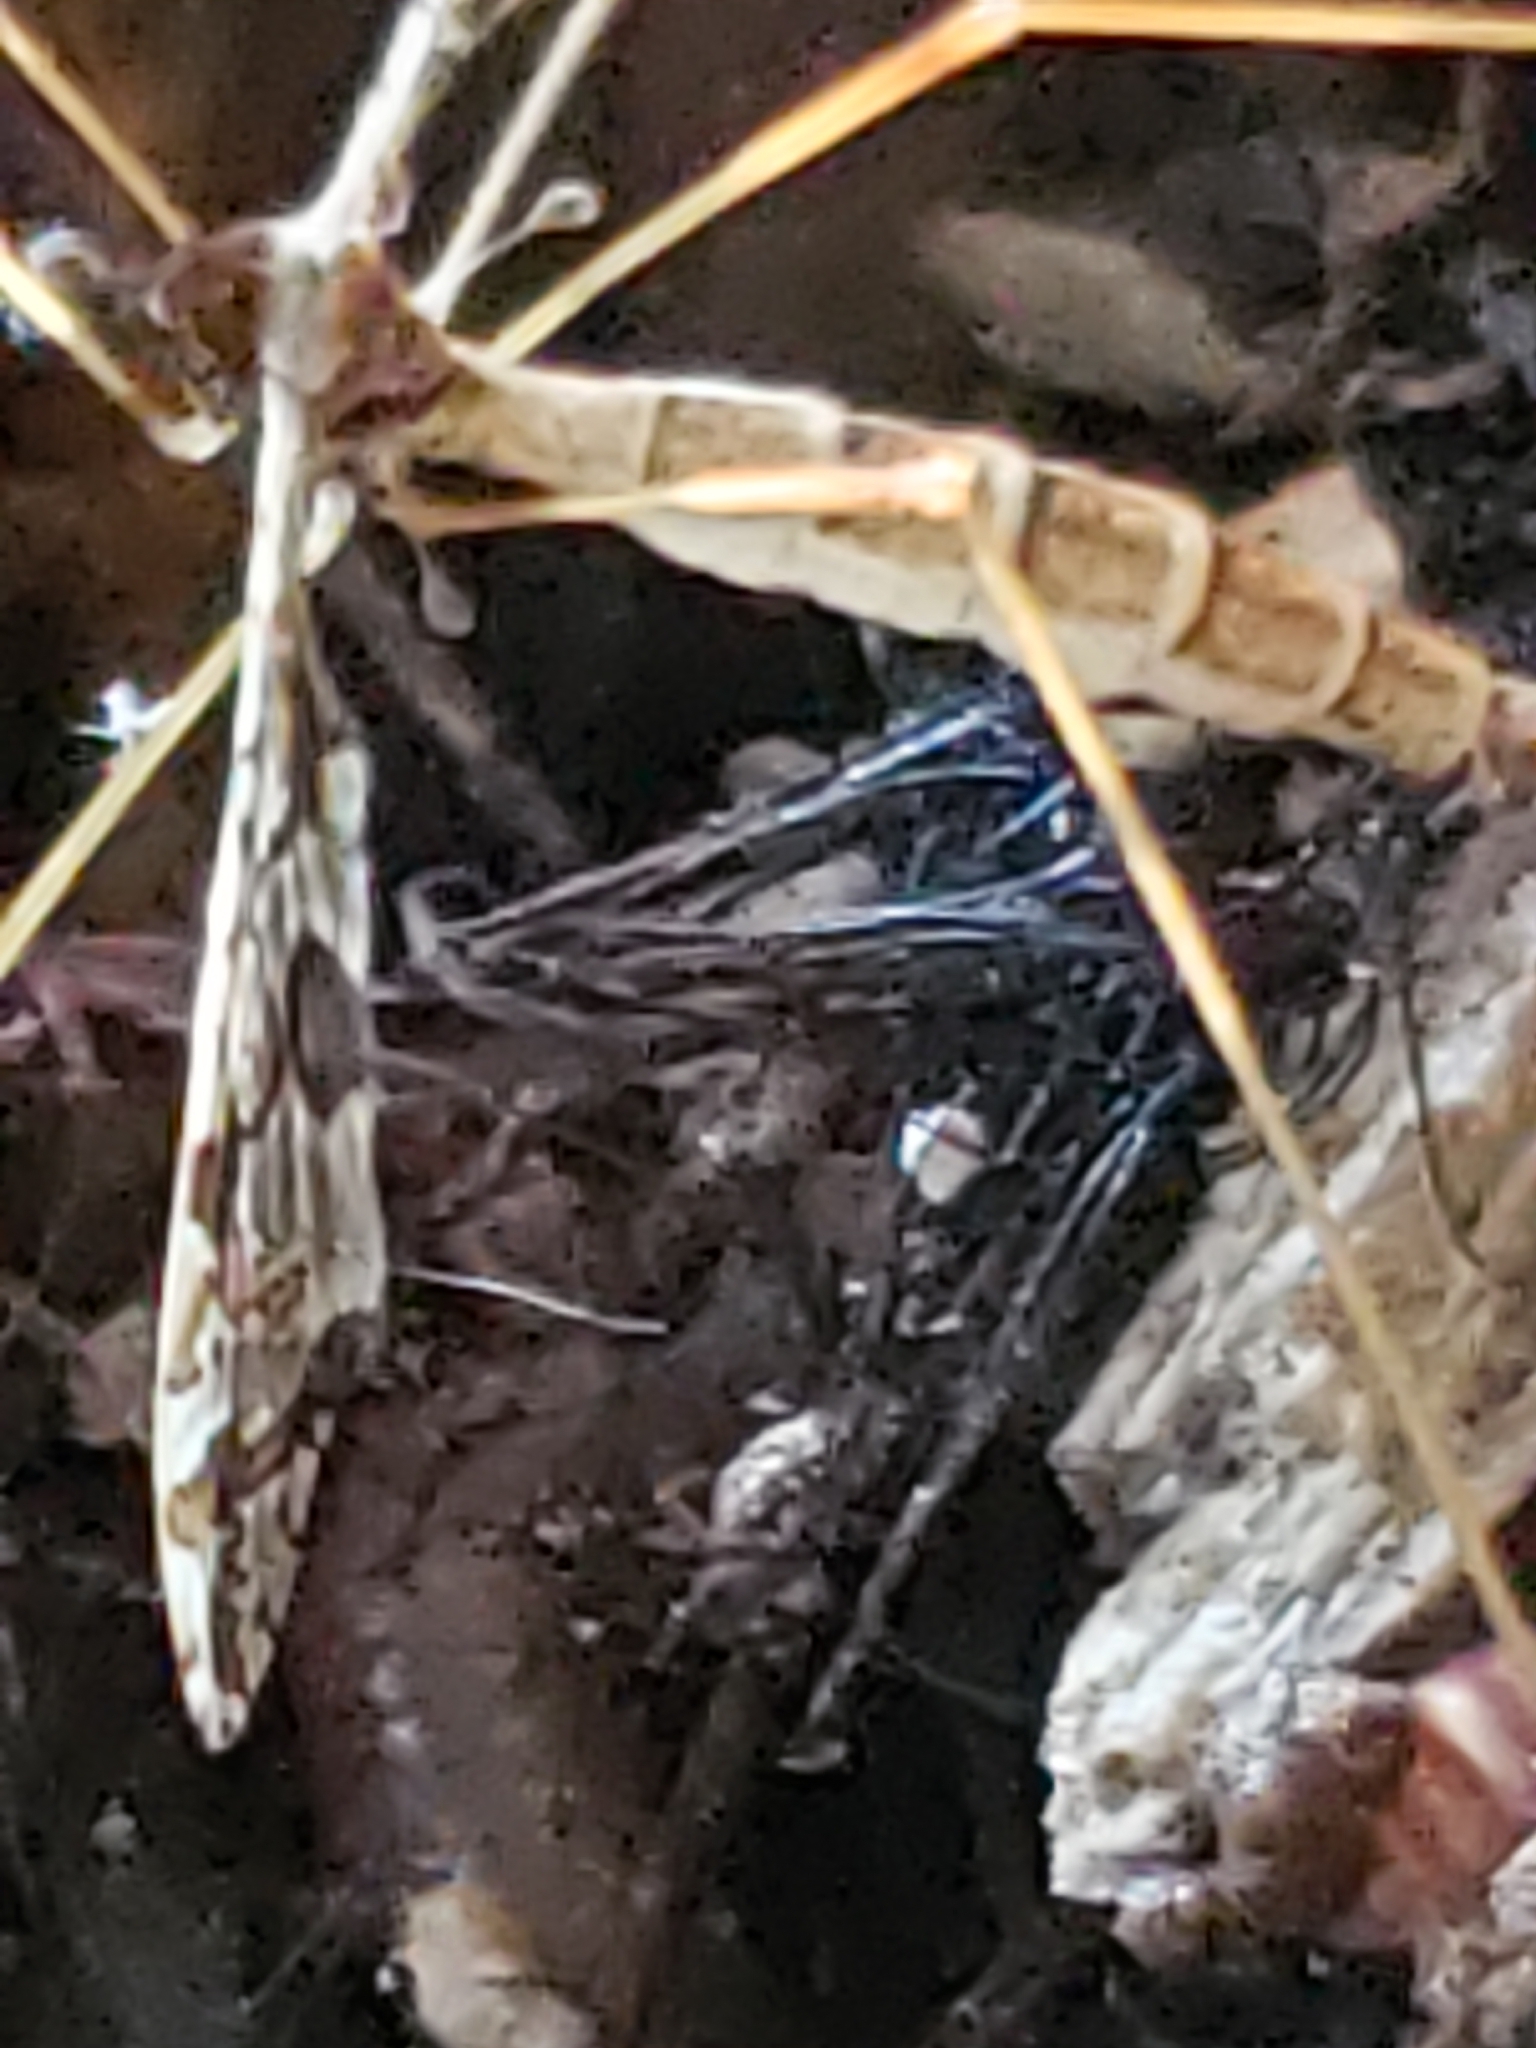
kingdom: Animalia
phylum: Arthropoda
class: Insecta
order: Diptera
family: Limoniidae
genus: Epiphragma
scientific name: Epiphragma solatrix
